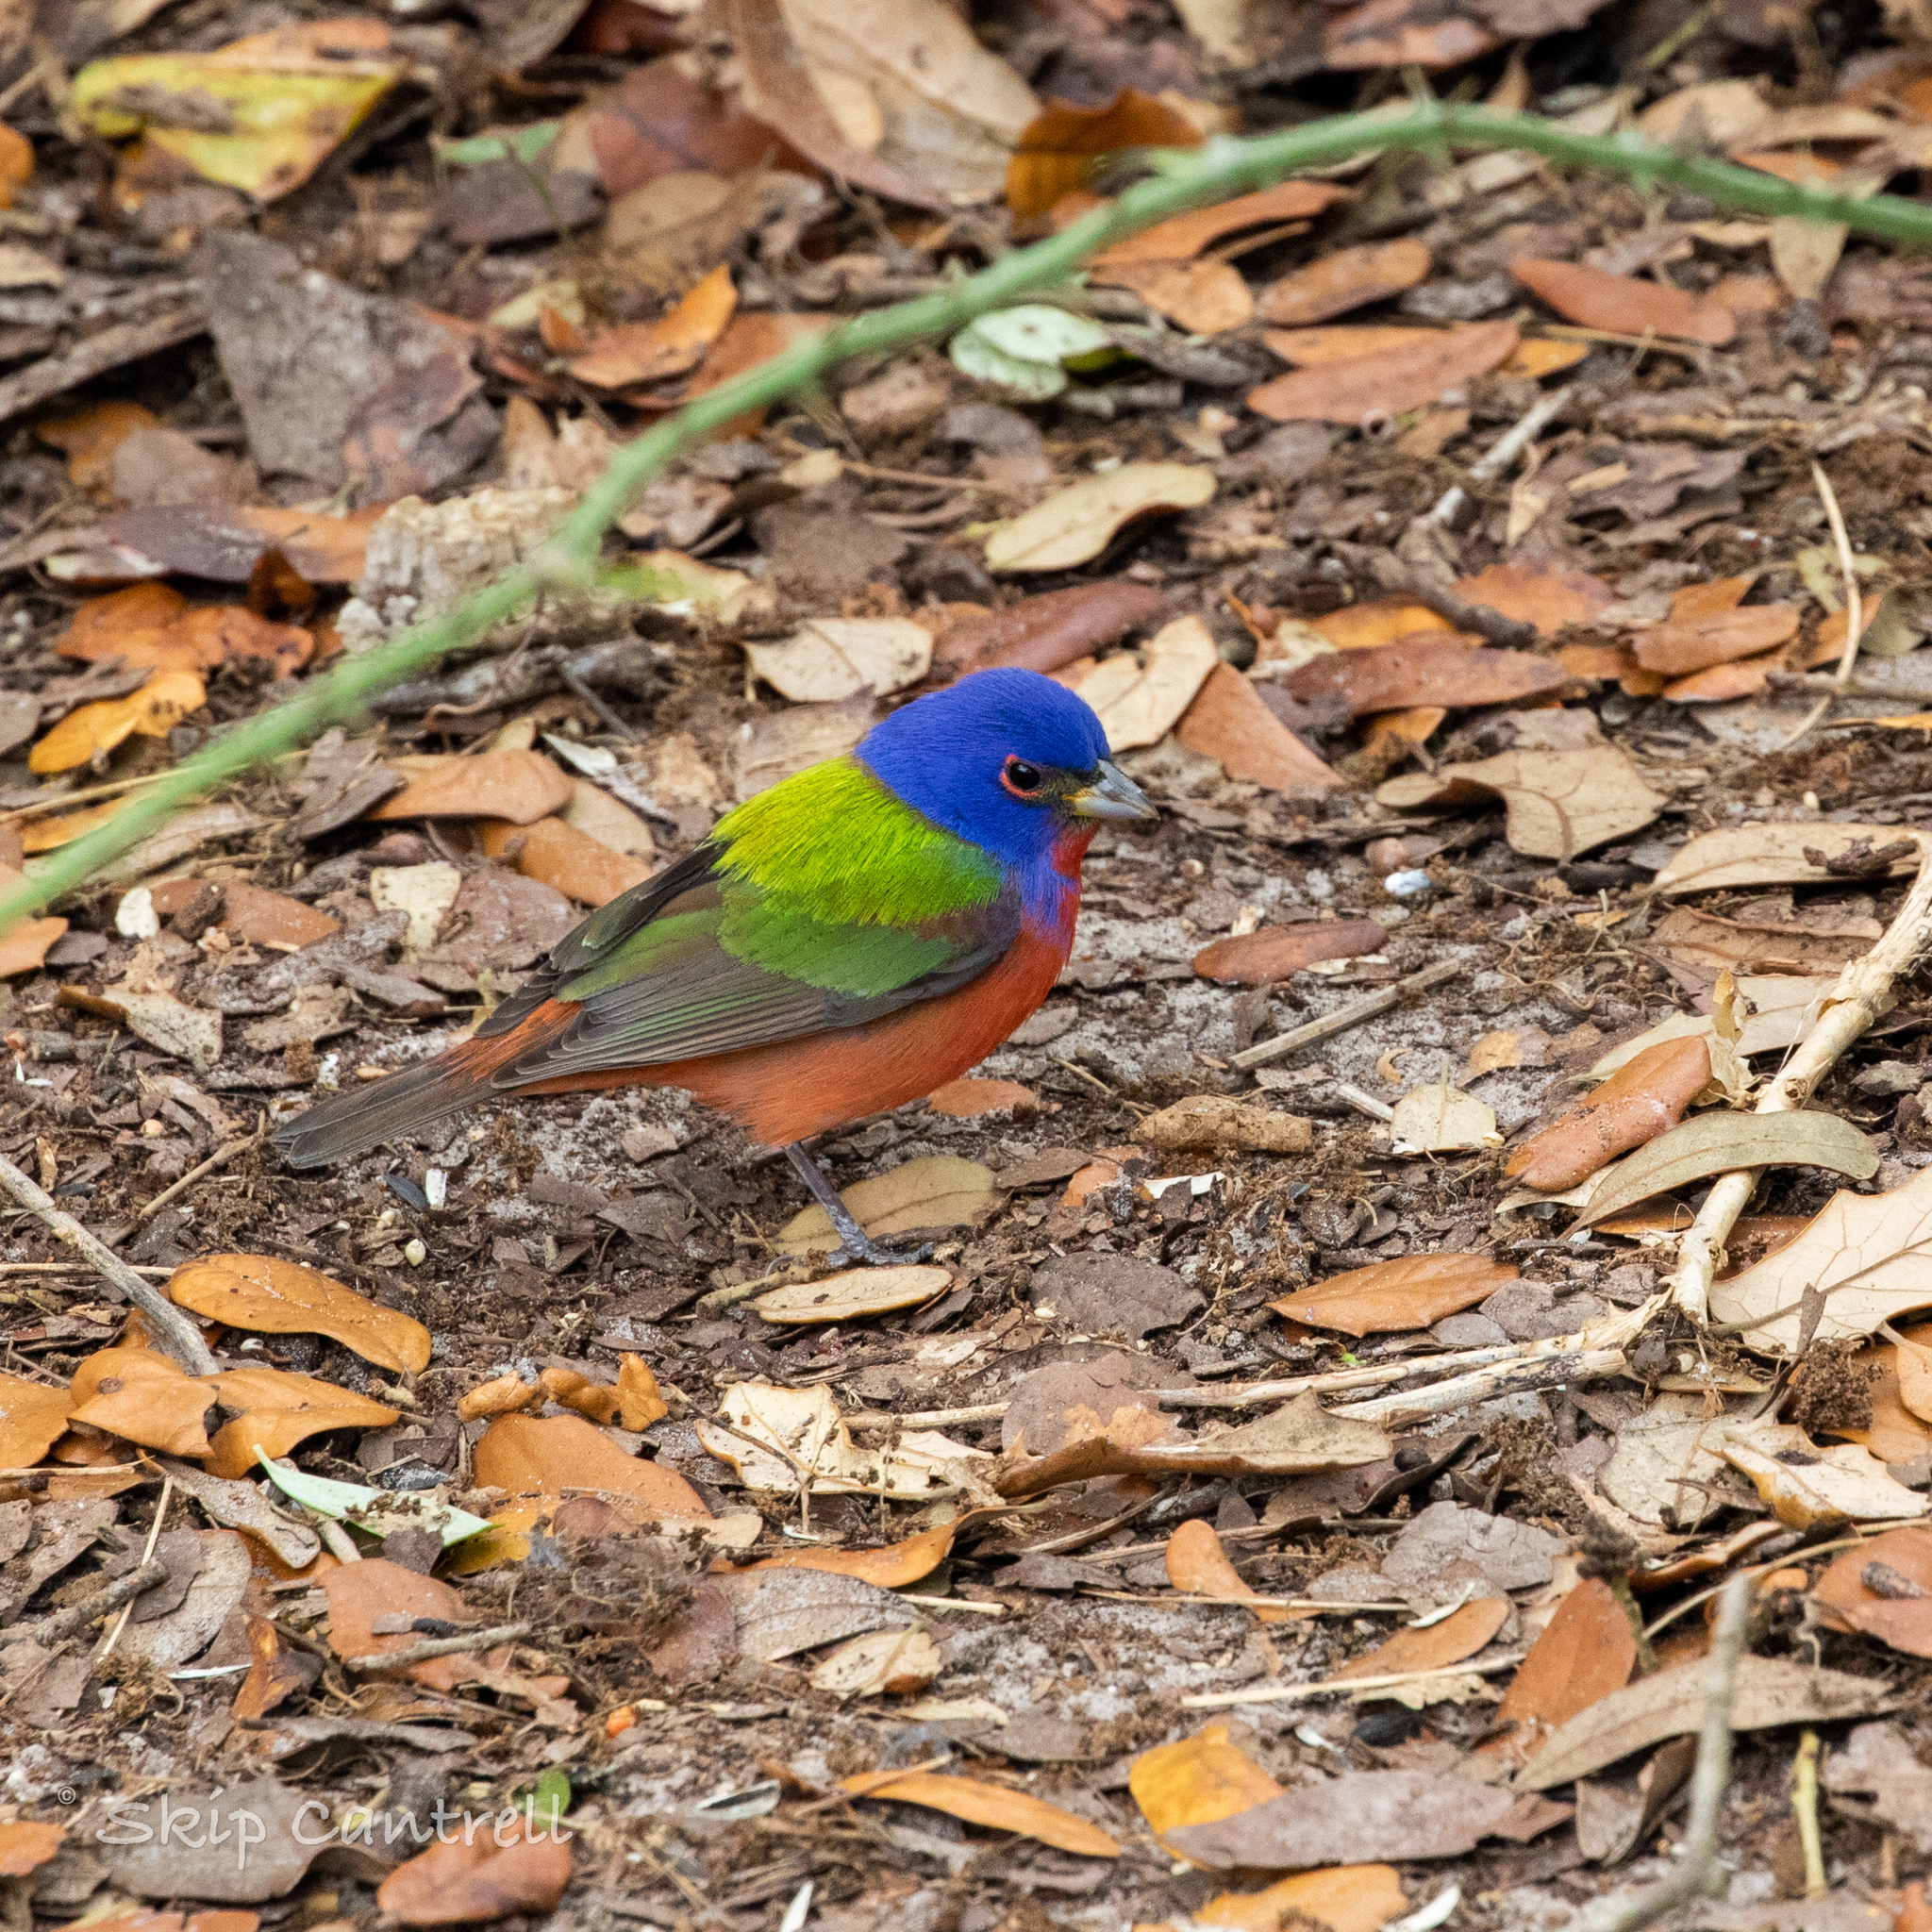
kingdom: Animalia
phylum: Chordata
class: Aves
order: Passeriformes
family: Cardinalidae
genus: Passerina
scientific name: Passerina ciris
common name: Painted bunting
